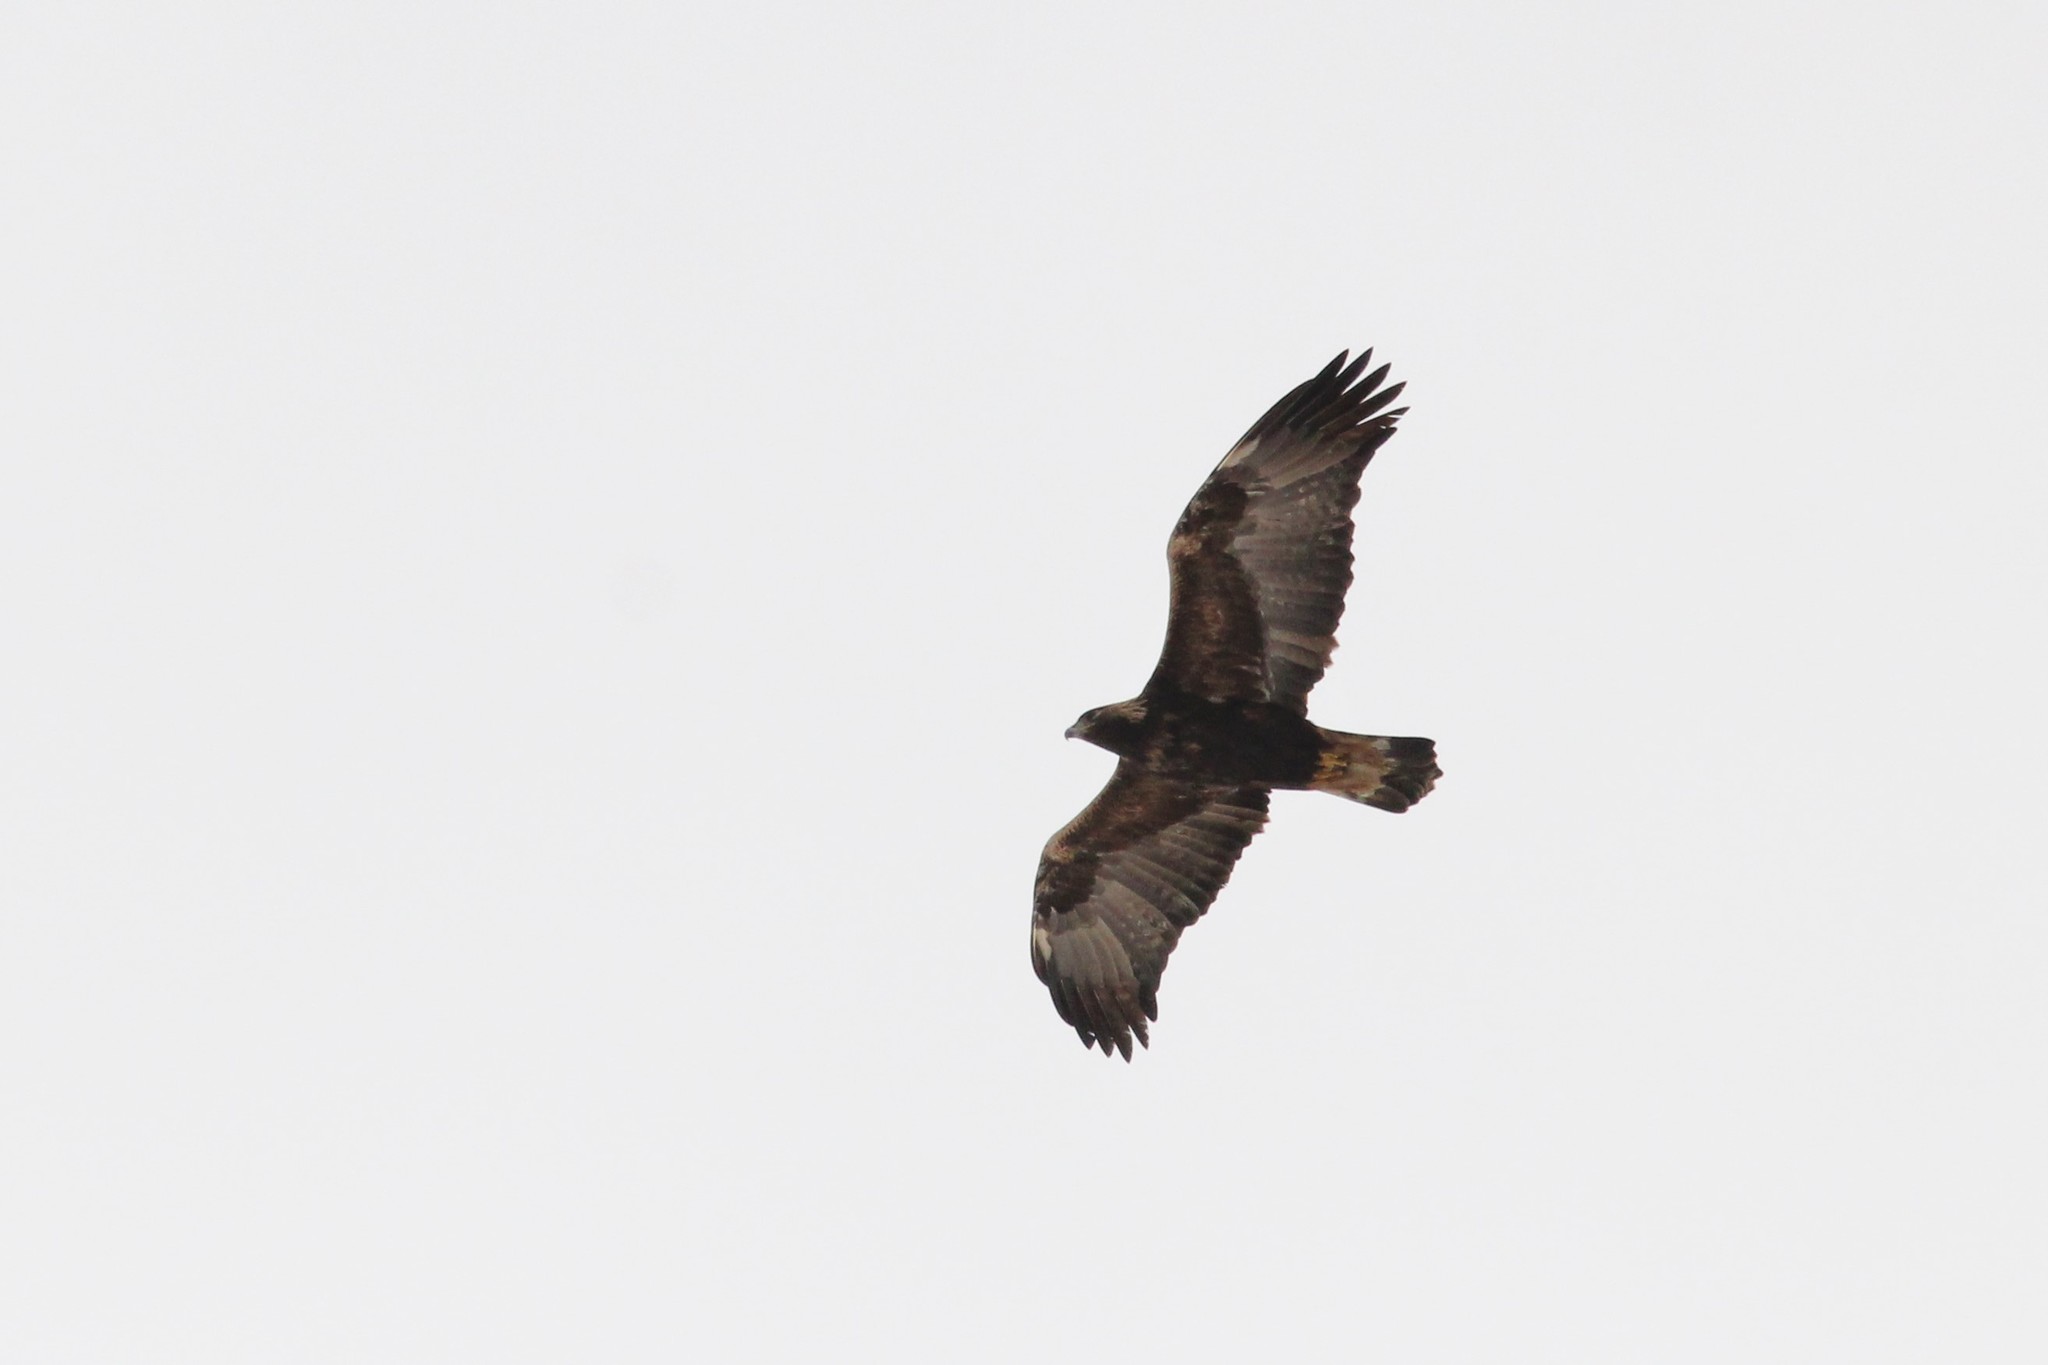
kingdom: Animalia
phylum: Chordata
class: Aves
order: Accipitriformes
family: Accipitridae
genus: Aquila
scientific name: Aquila chrysaetos
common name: Golden eagle
